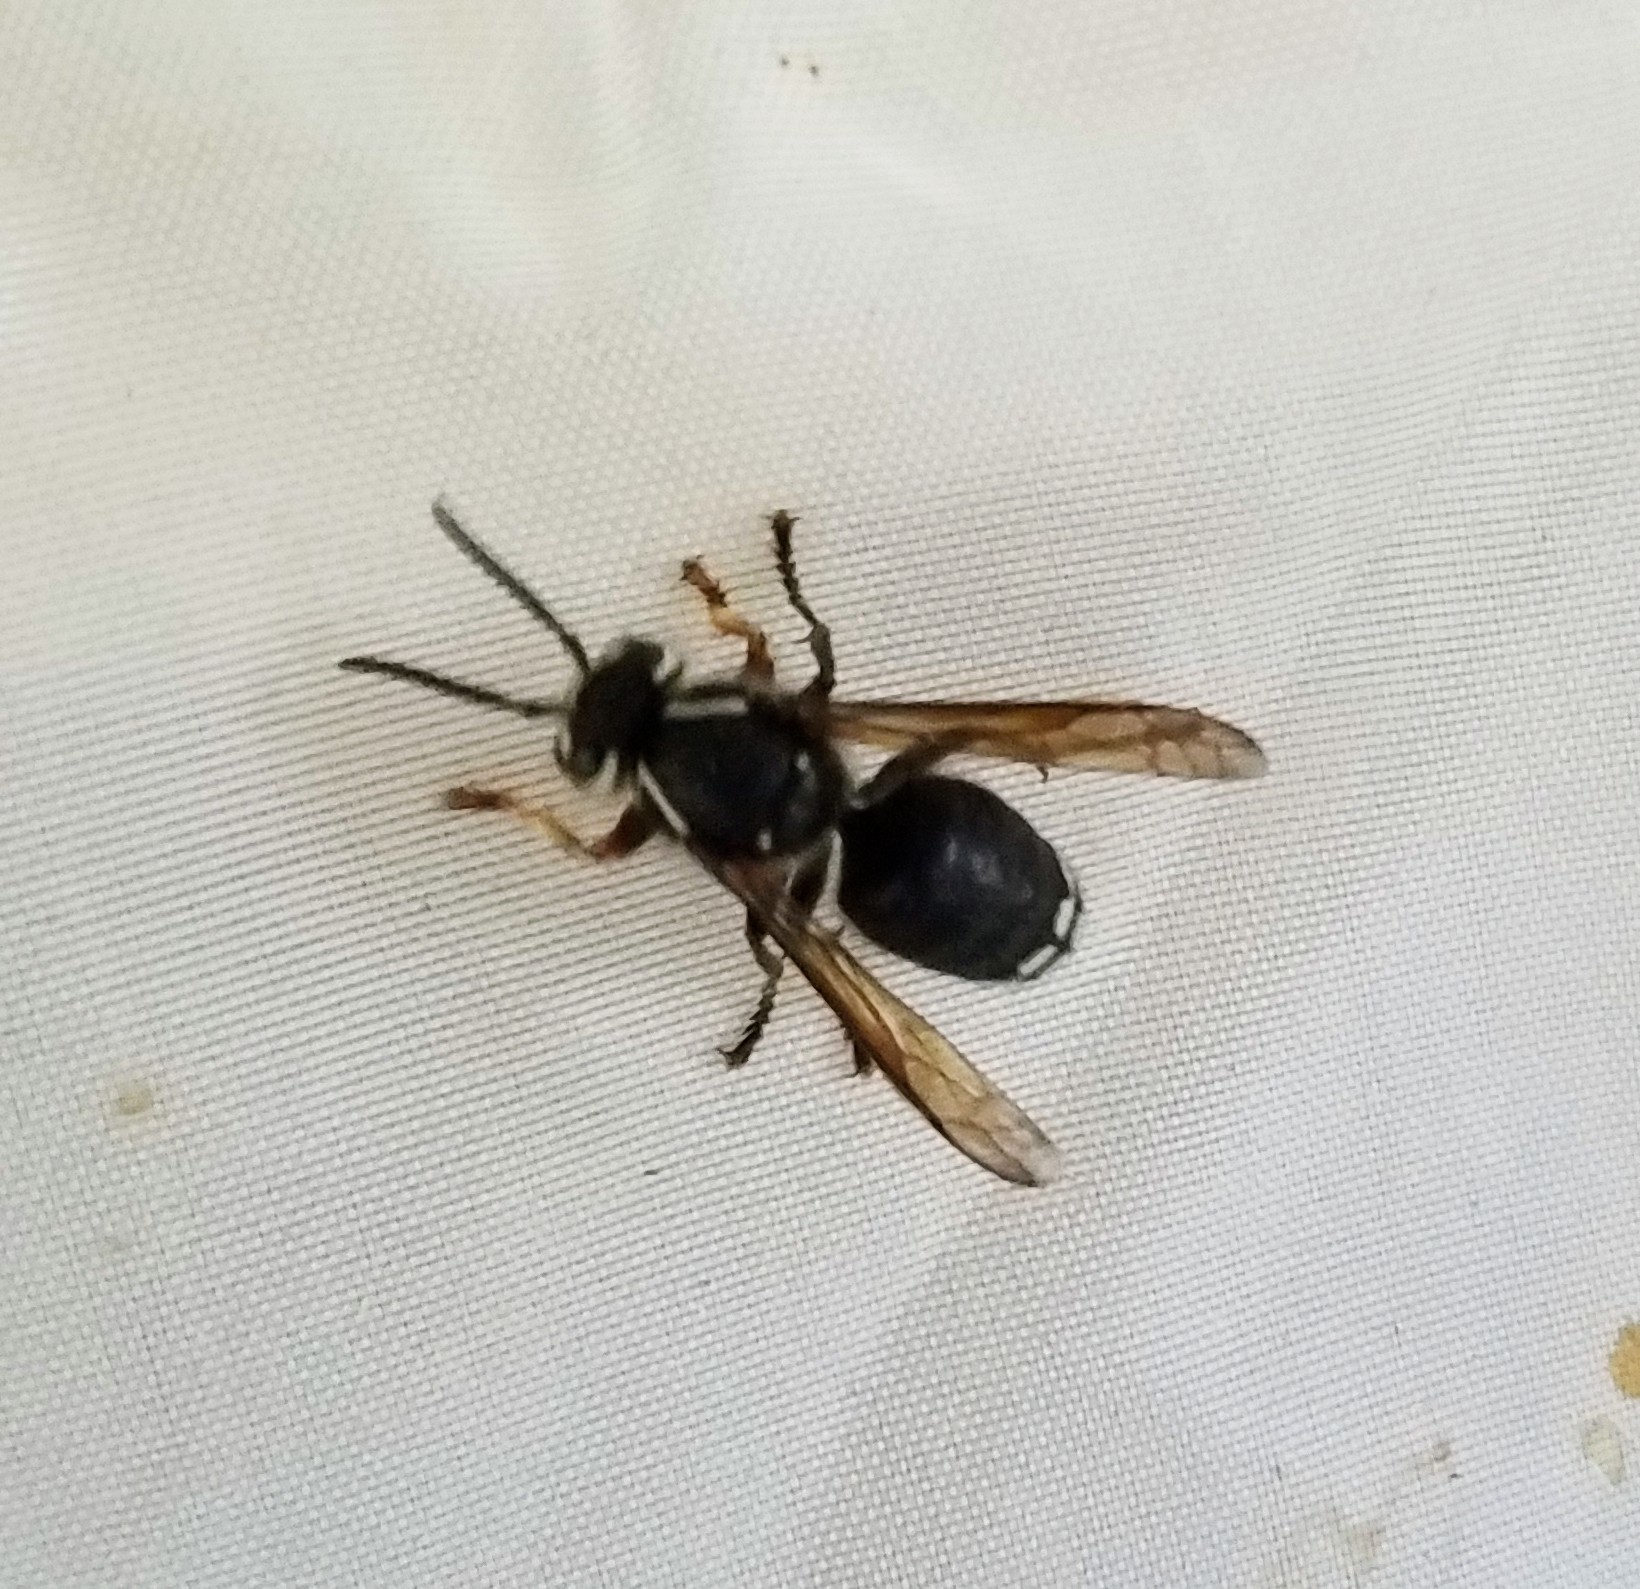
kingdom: Animalia
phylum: Arthropoda
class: Insecta
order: Hymenoptera
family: Vespidae
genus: Dolichovespula
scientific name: Dolichovespula maculata
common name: Bald-faced hornet
